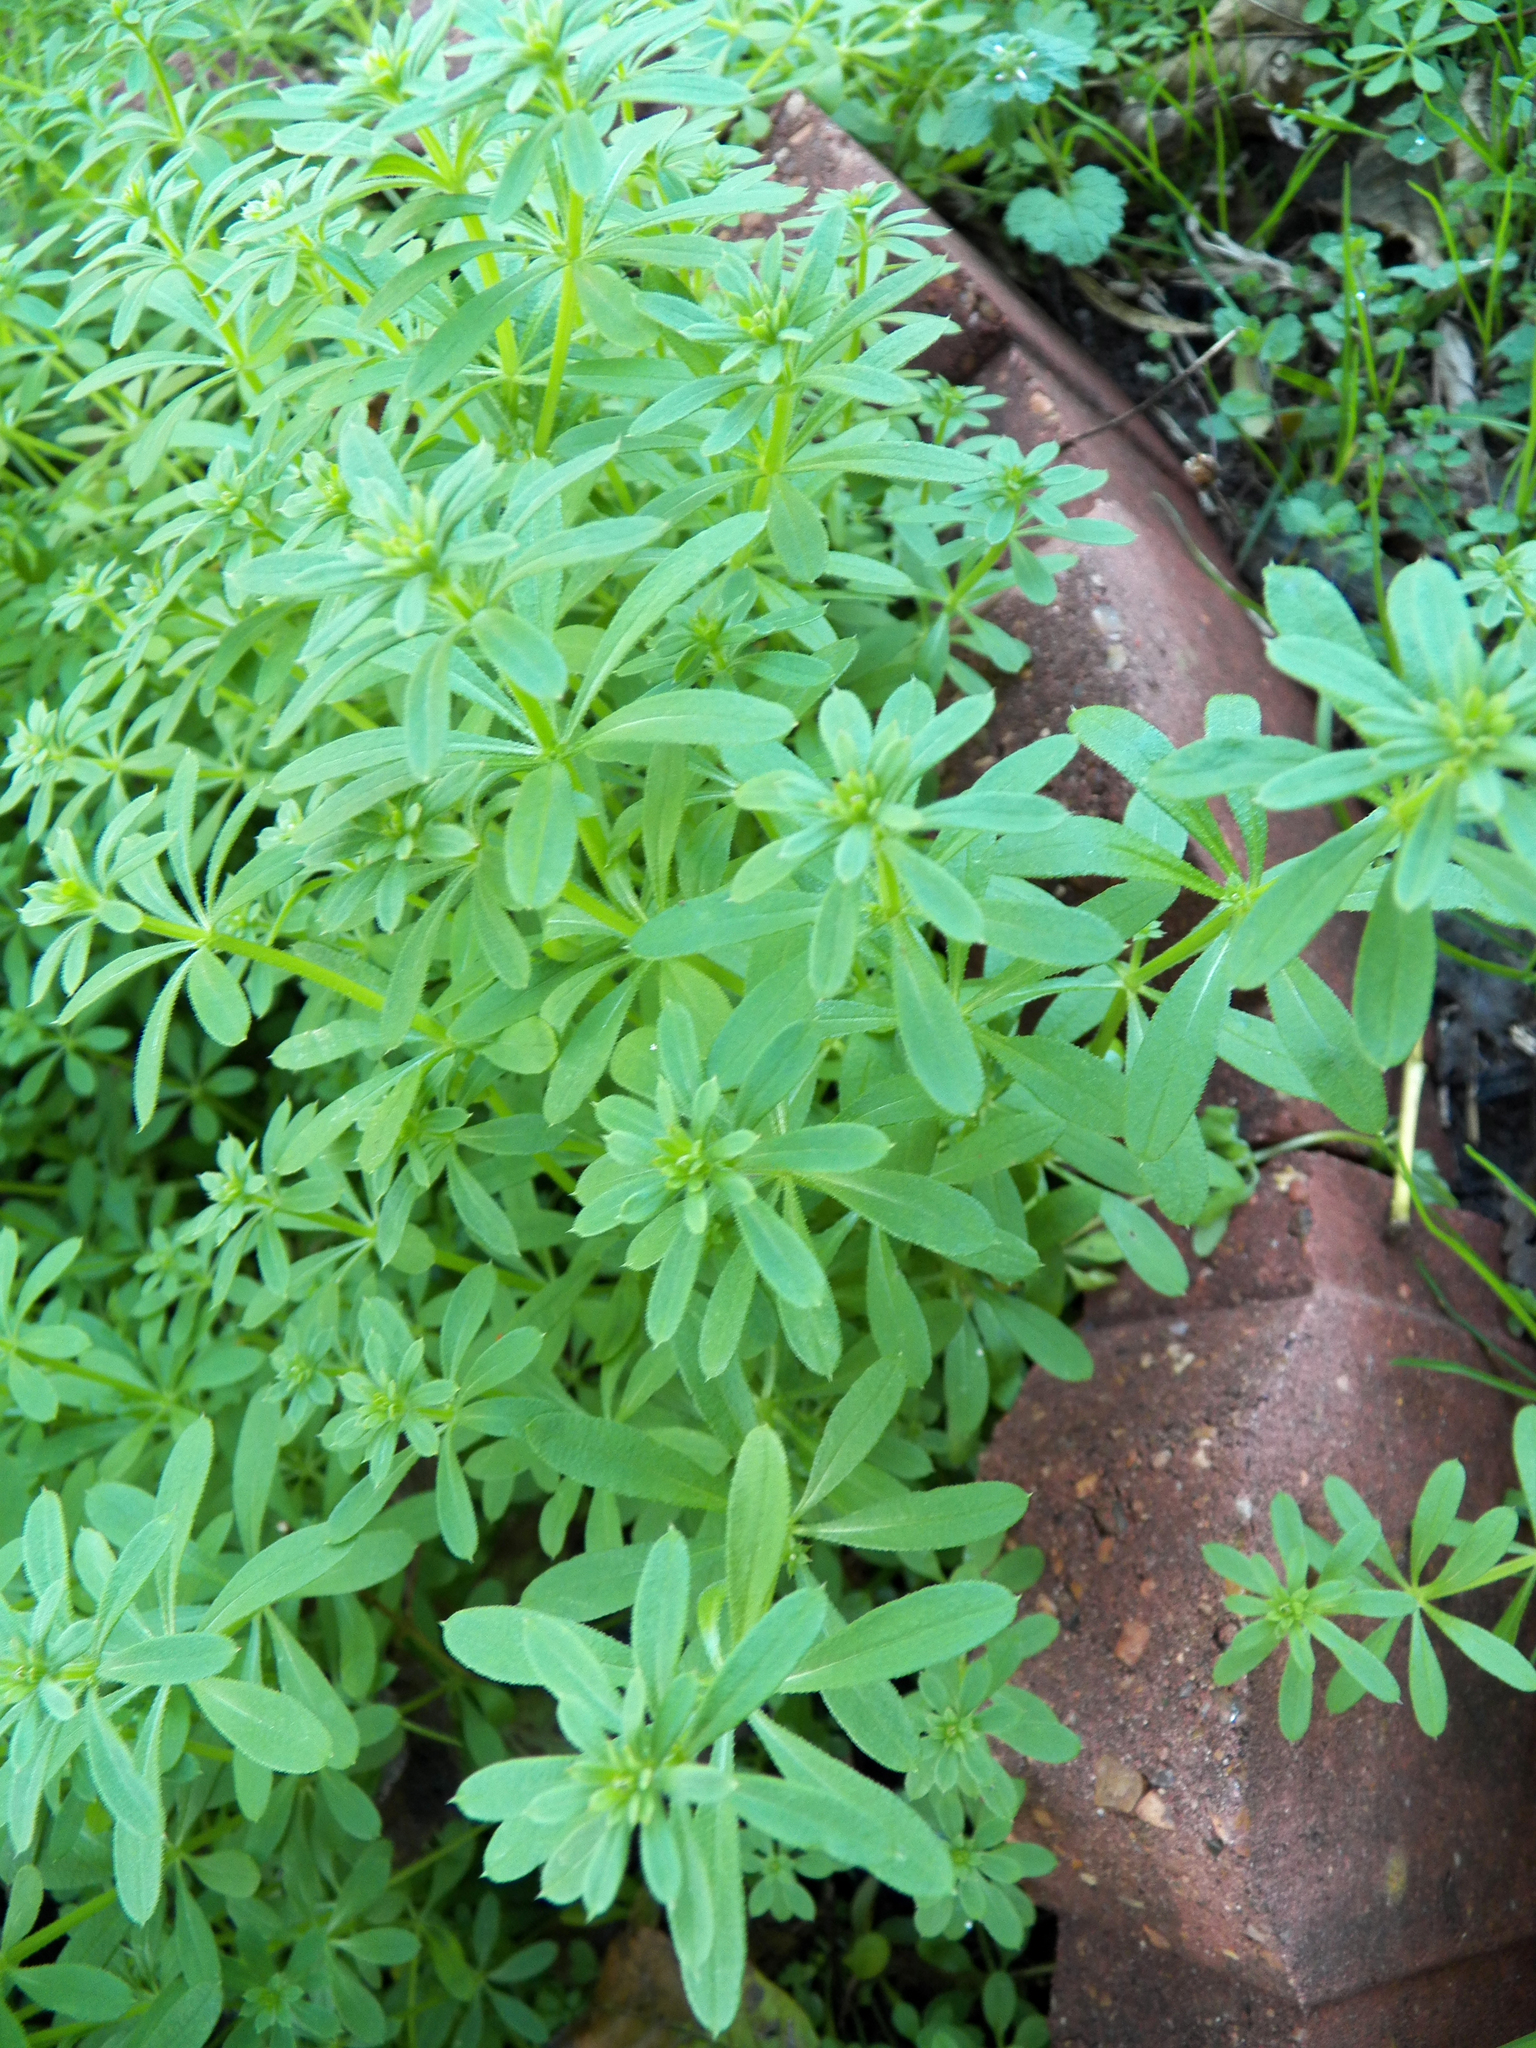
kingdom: Plantae
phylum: Tracheophyta
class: Magnoliopsida
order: Gentianales
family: Rubiaceae
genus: Galium
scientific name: Galium aparine
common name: Cleavers
